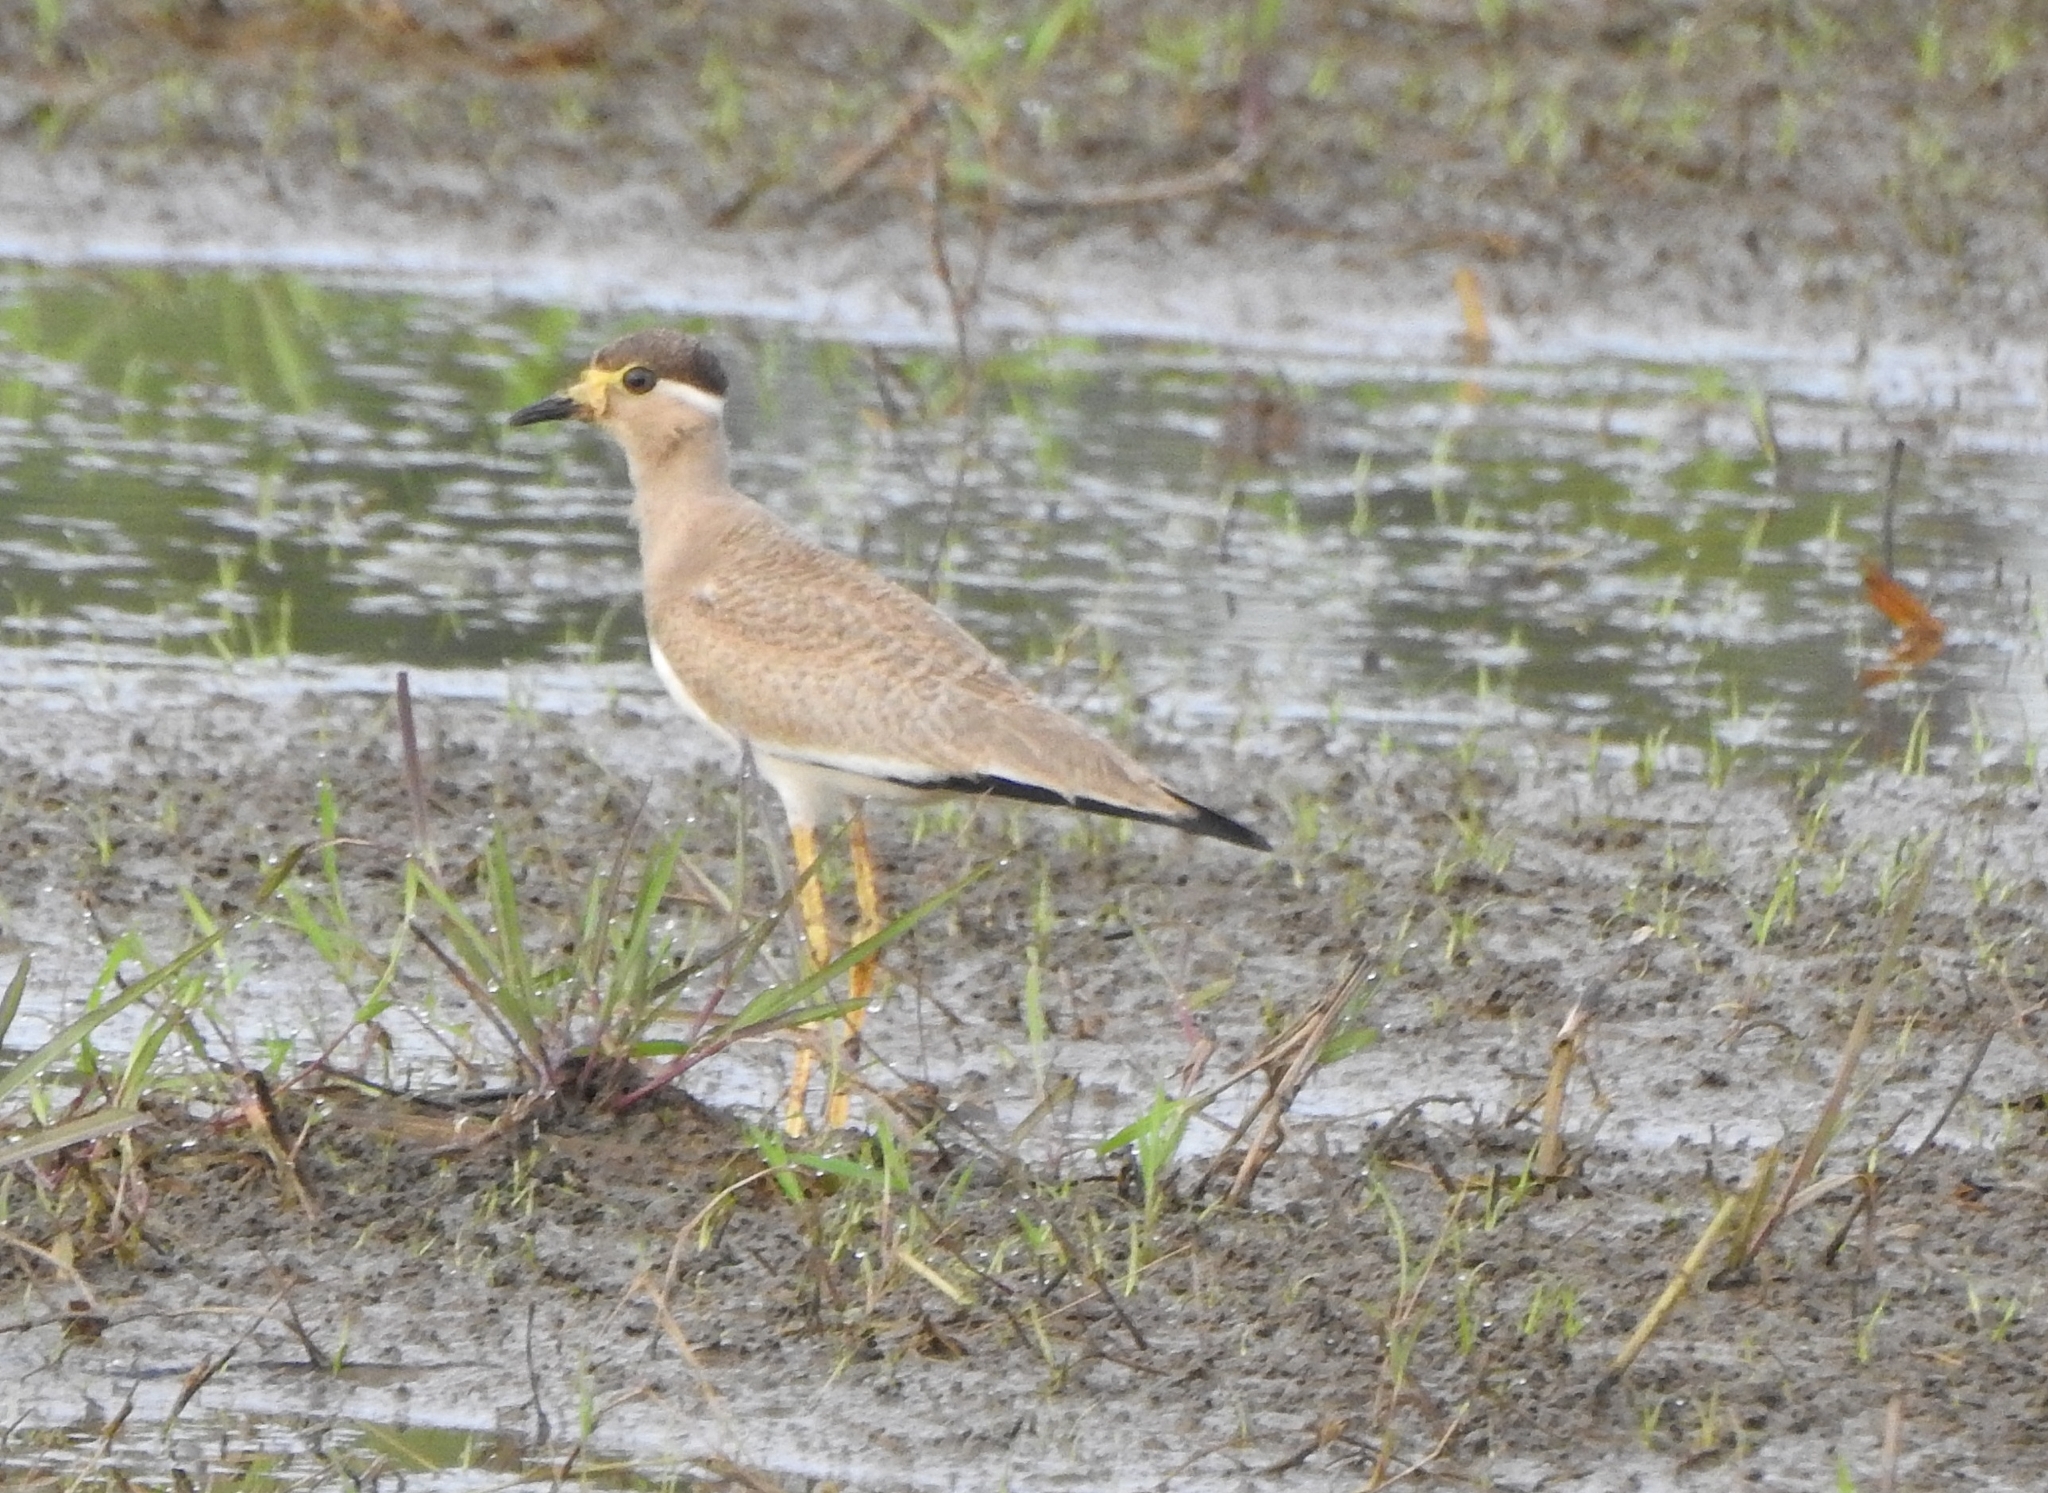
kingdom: Animalia
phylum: Chordata
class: Aves
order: Charadriiformes
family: Charadriidae
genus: Vanellus
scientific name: Vanellus malabaricus
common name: Yellow-wattled lapwing
